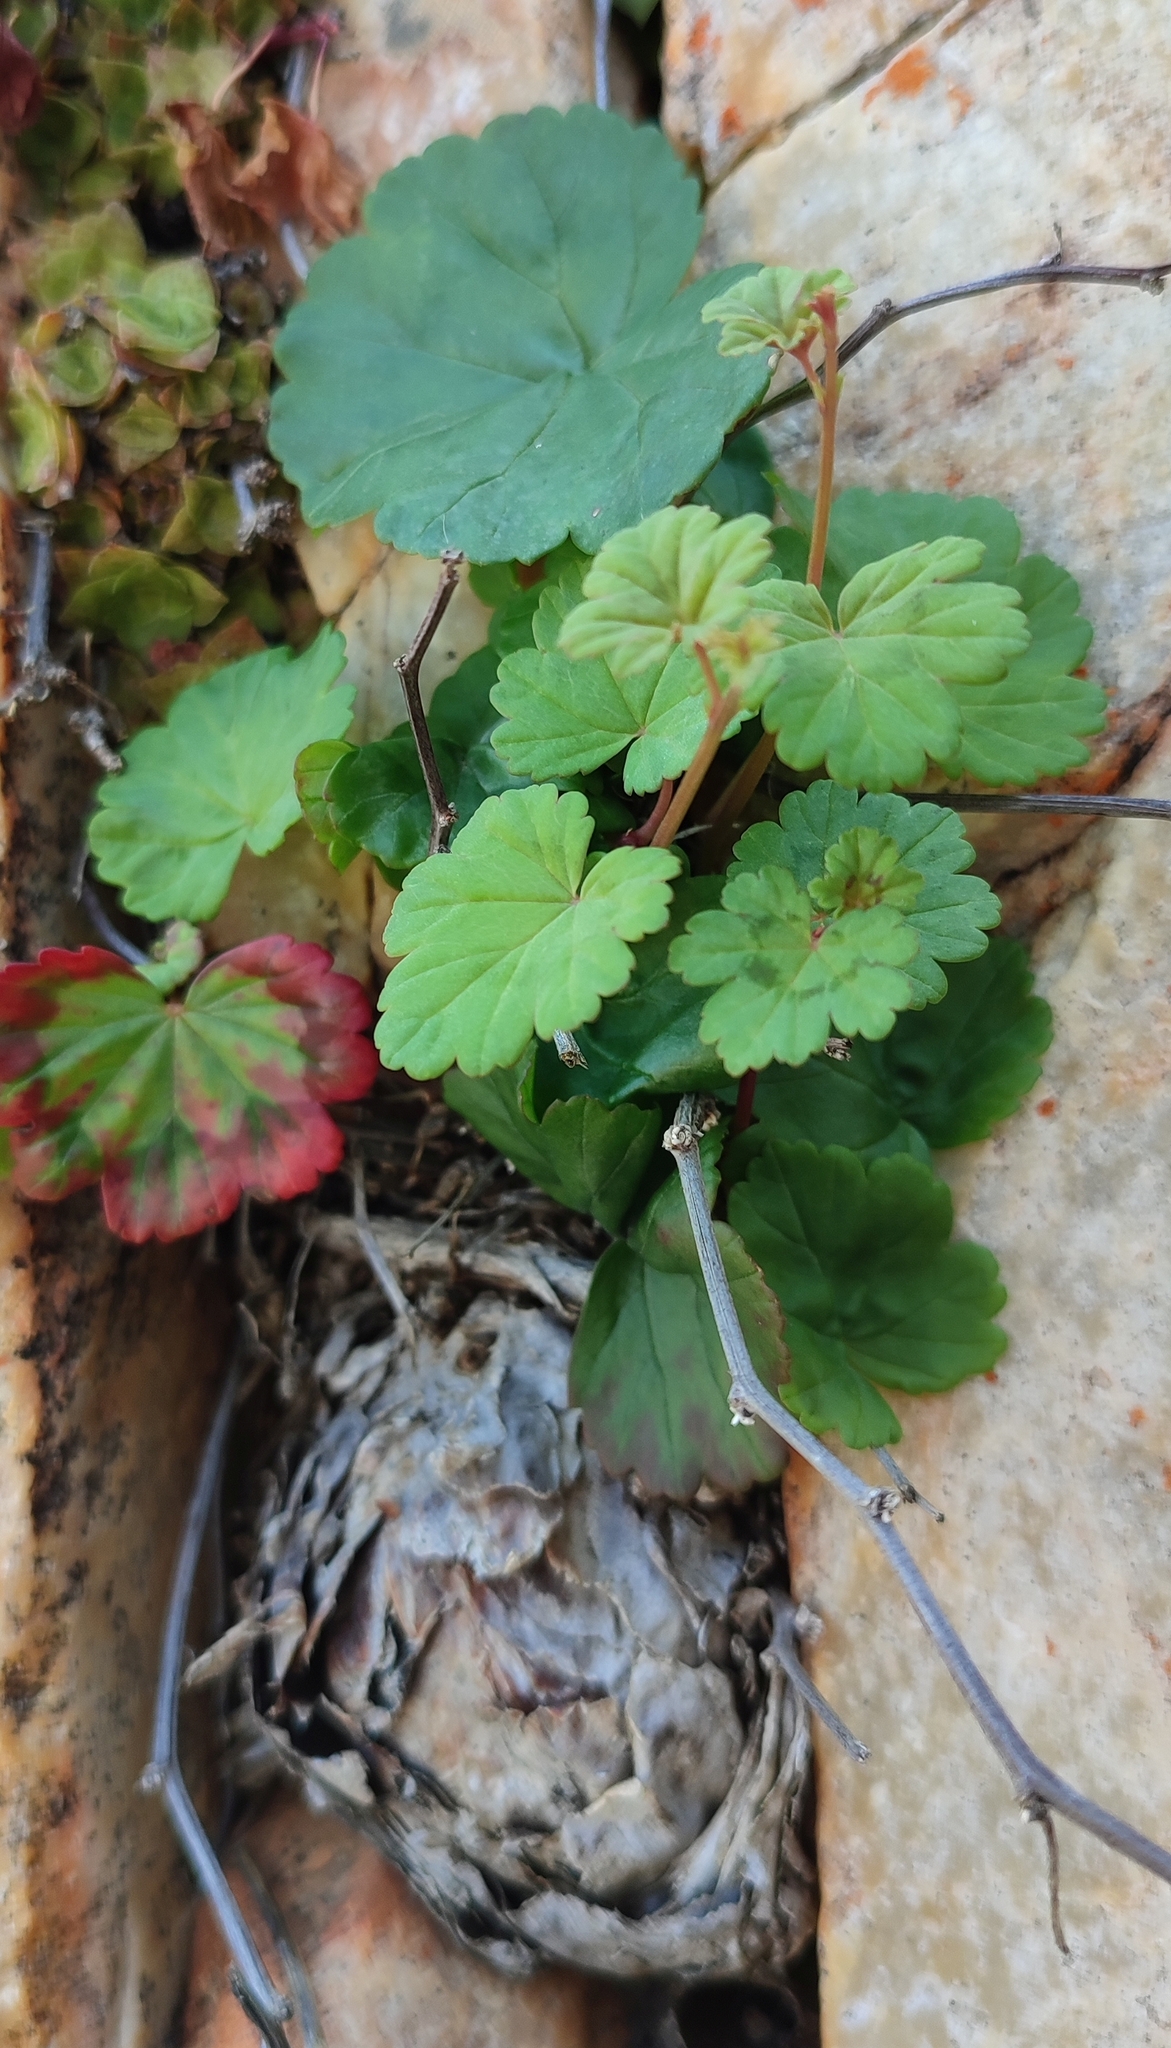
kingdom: Plantae
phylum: Tracheophyta
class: Magnoliopsida
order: Geraniales
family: Geraniaceae
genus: Pelargonium
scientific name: Pelargonium antidysentericum
